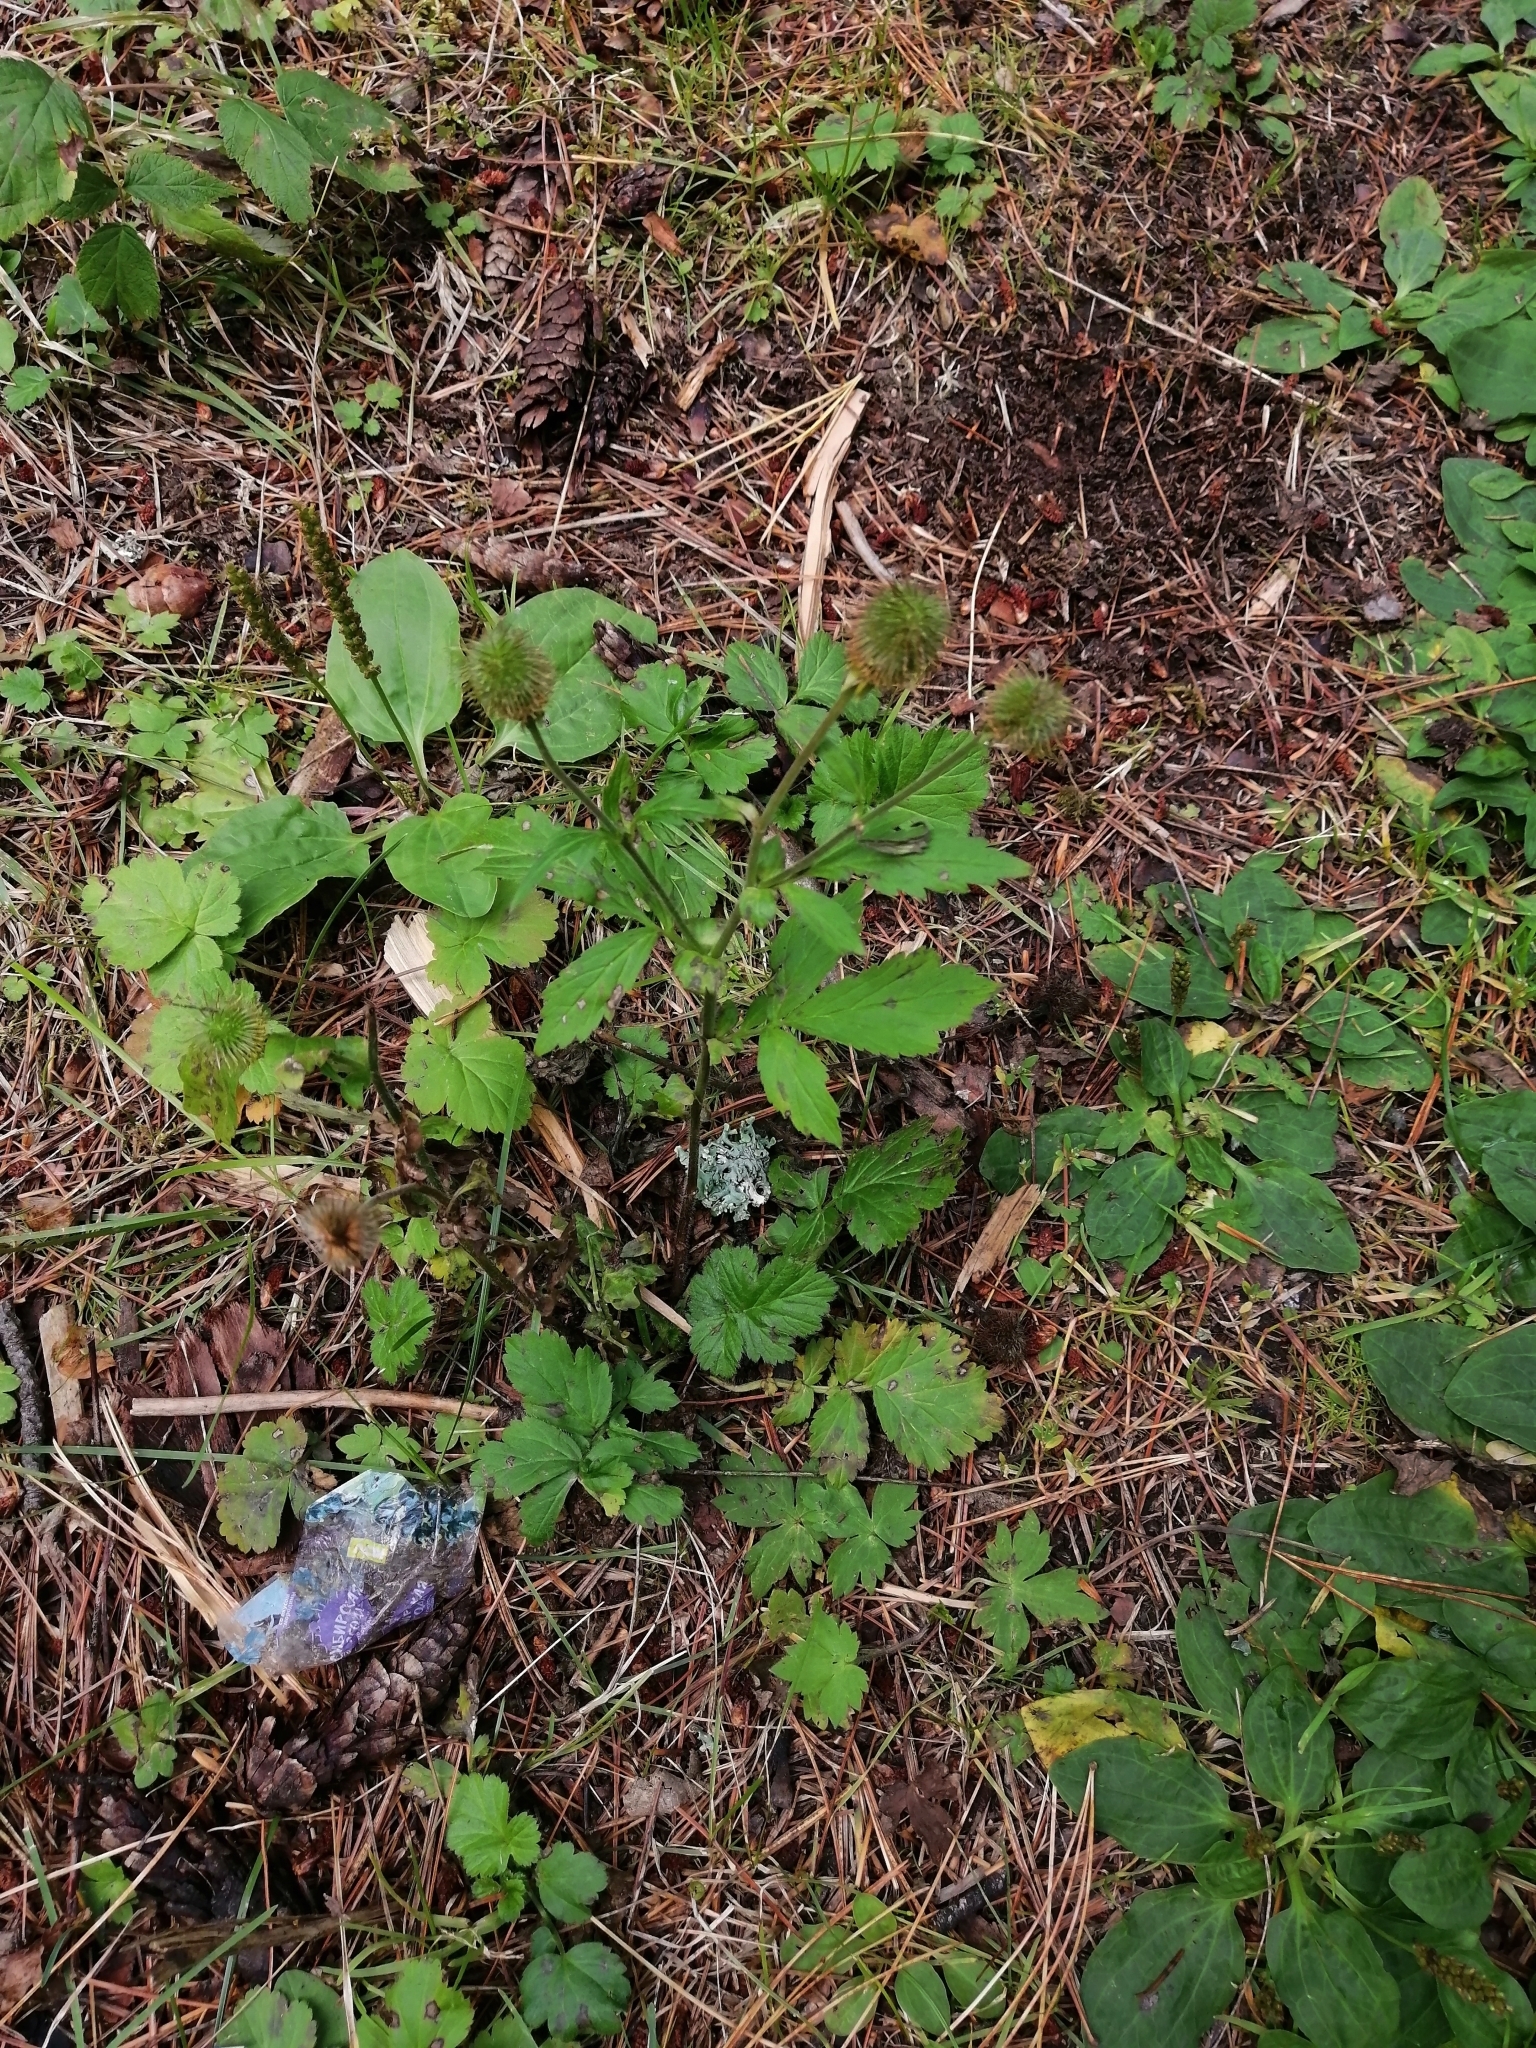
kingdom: Plantae
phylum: Tracheophyta
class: Magnoliopsida
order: Rosales
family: Rosaceae
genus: Geum
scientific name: Geum aleppicum
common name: Yellow avens
